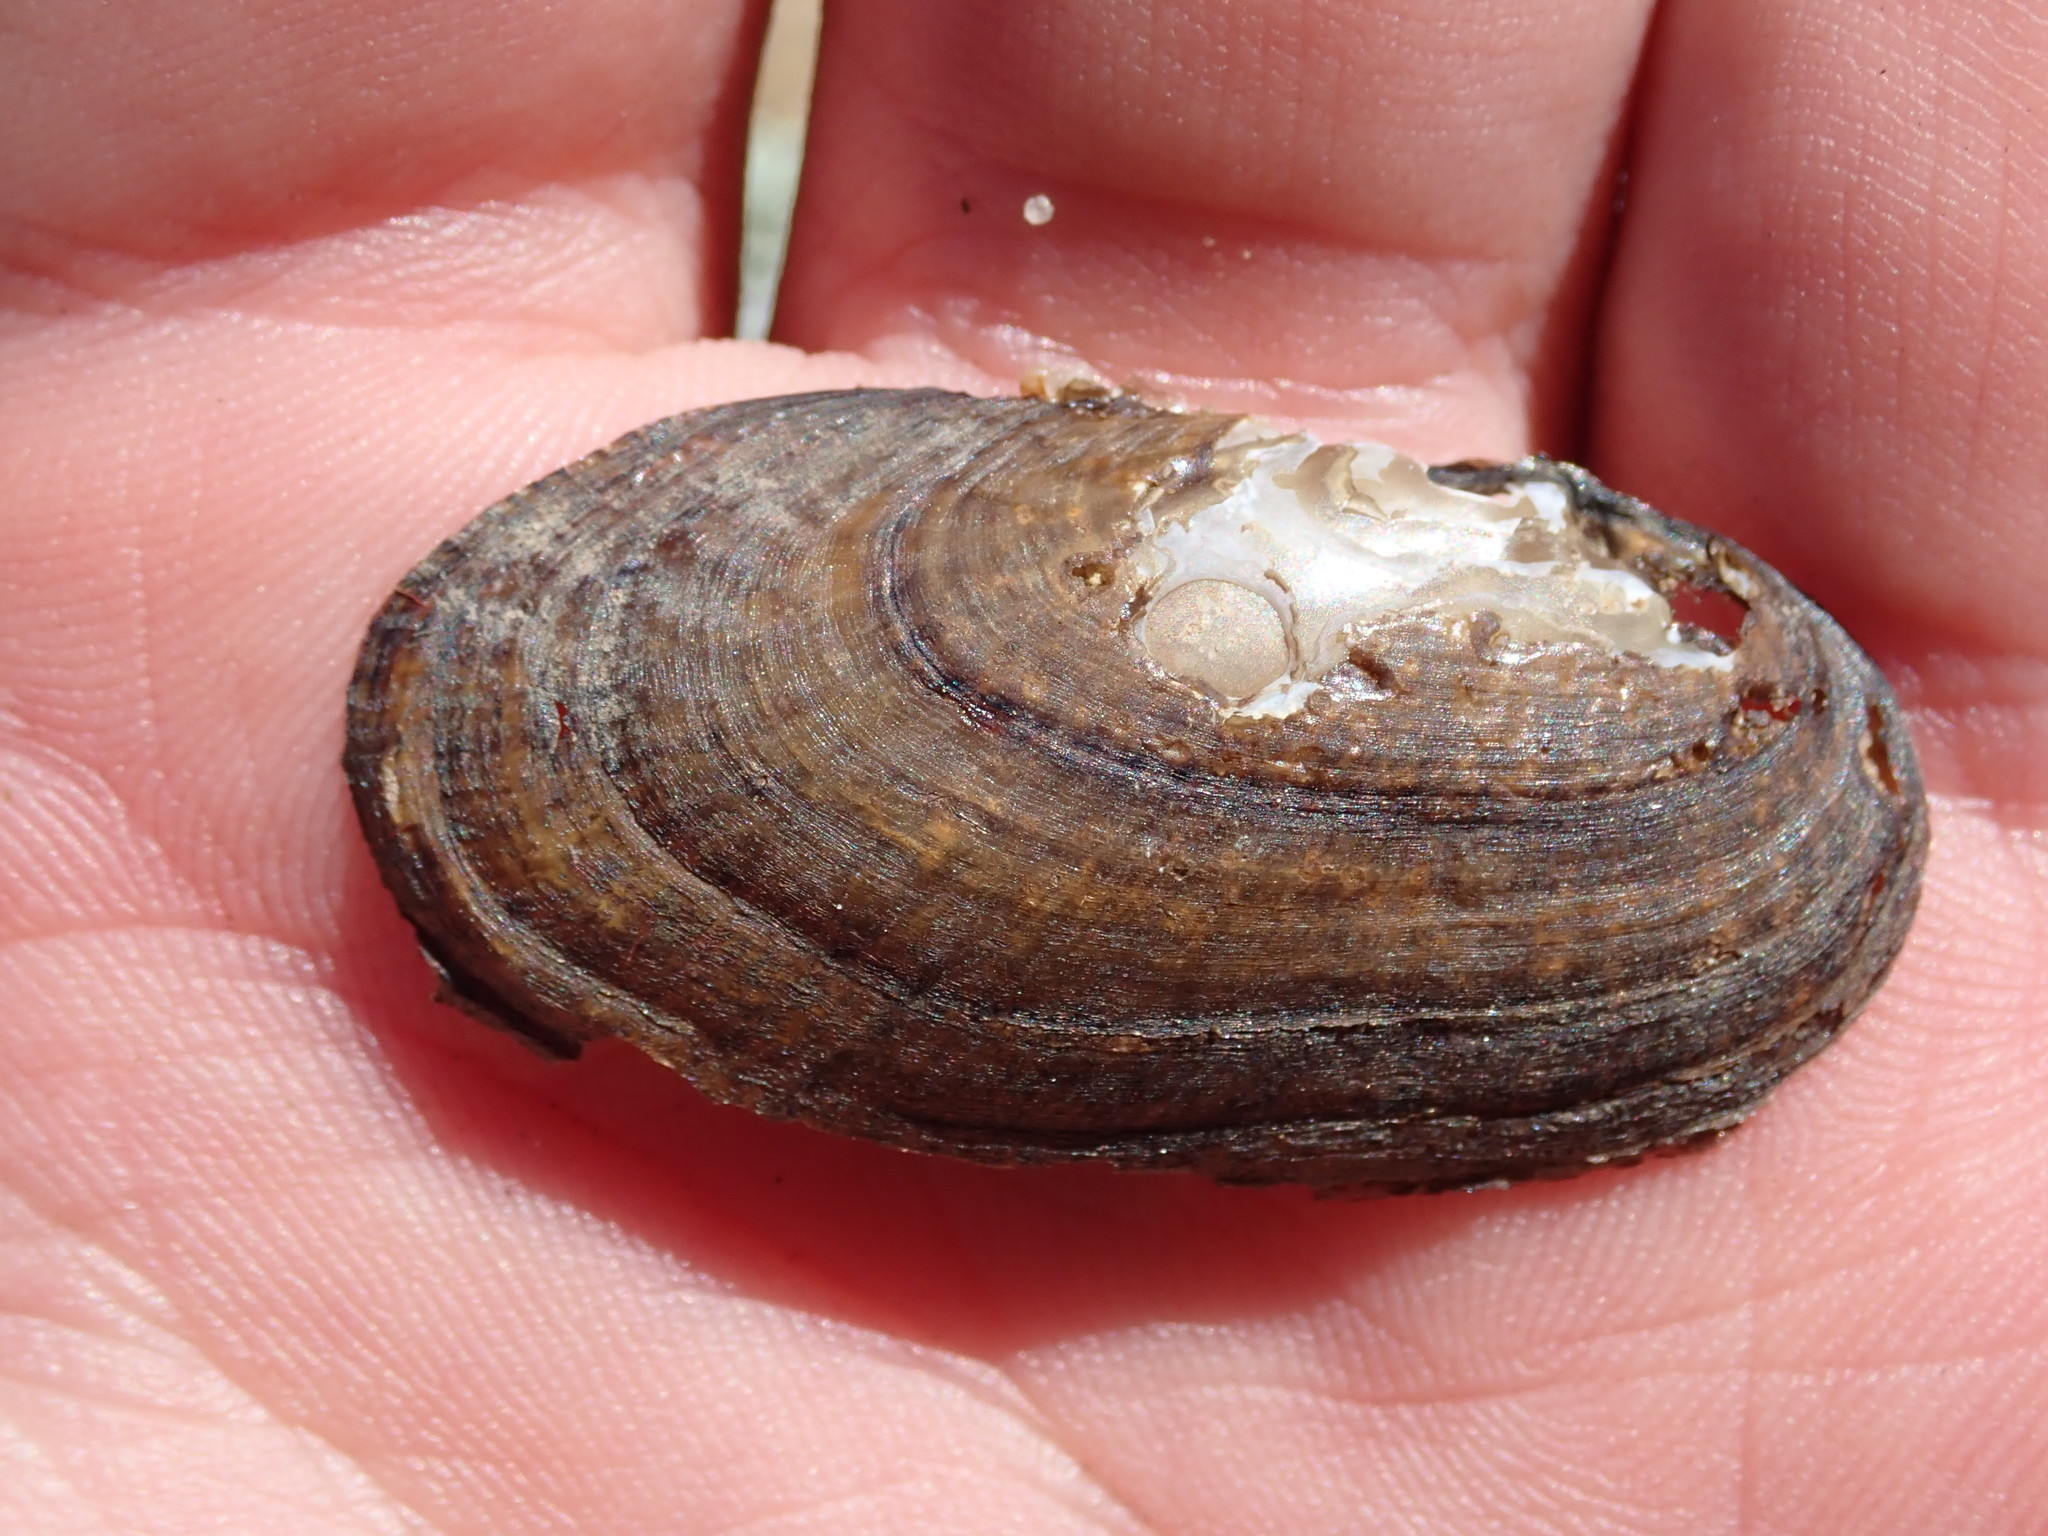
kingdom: Animalia
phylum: Mollusca
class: Bivalvia
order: Unionida
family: Unionidae
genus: Lasmigona
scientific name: Lasmigona costata
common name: Flutedshell
